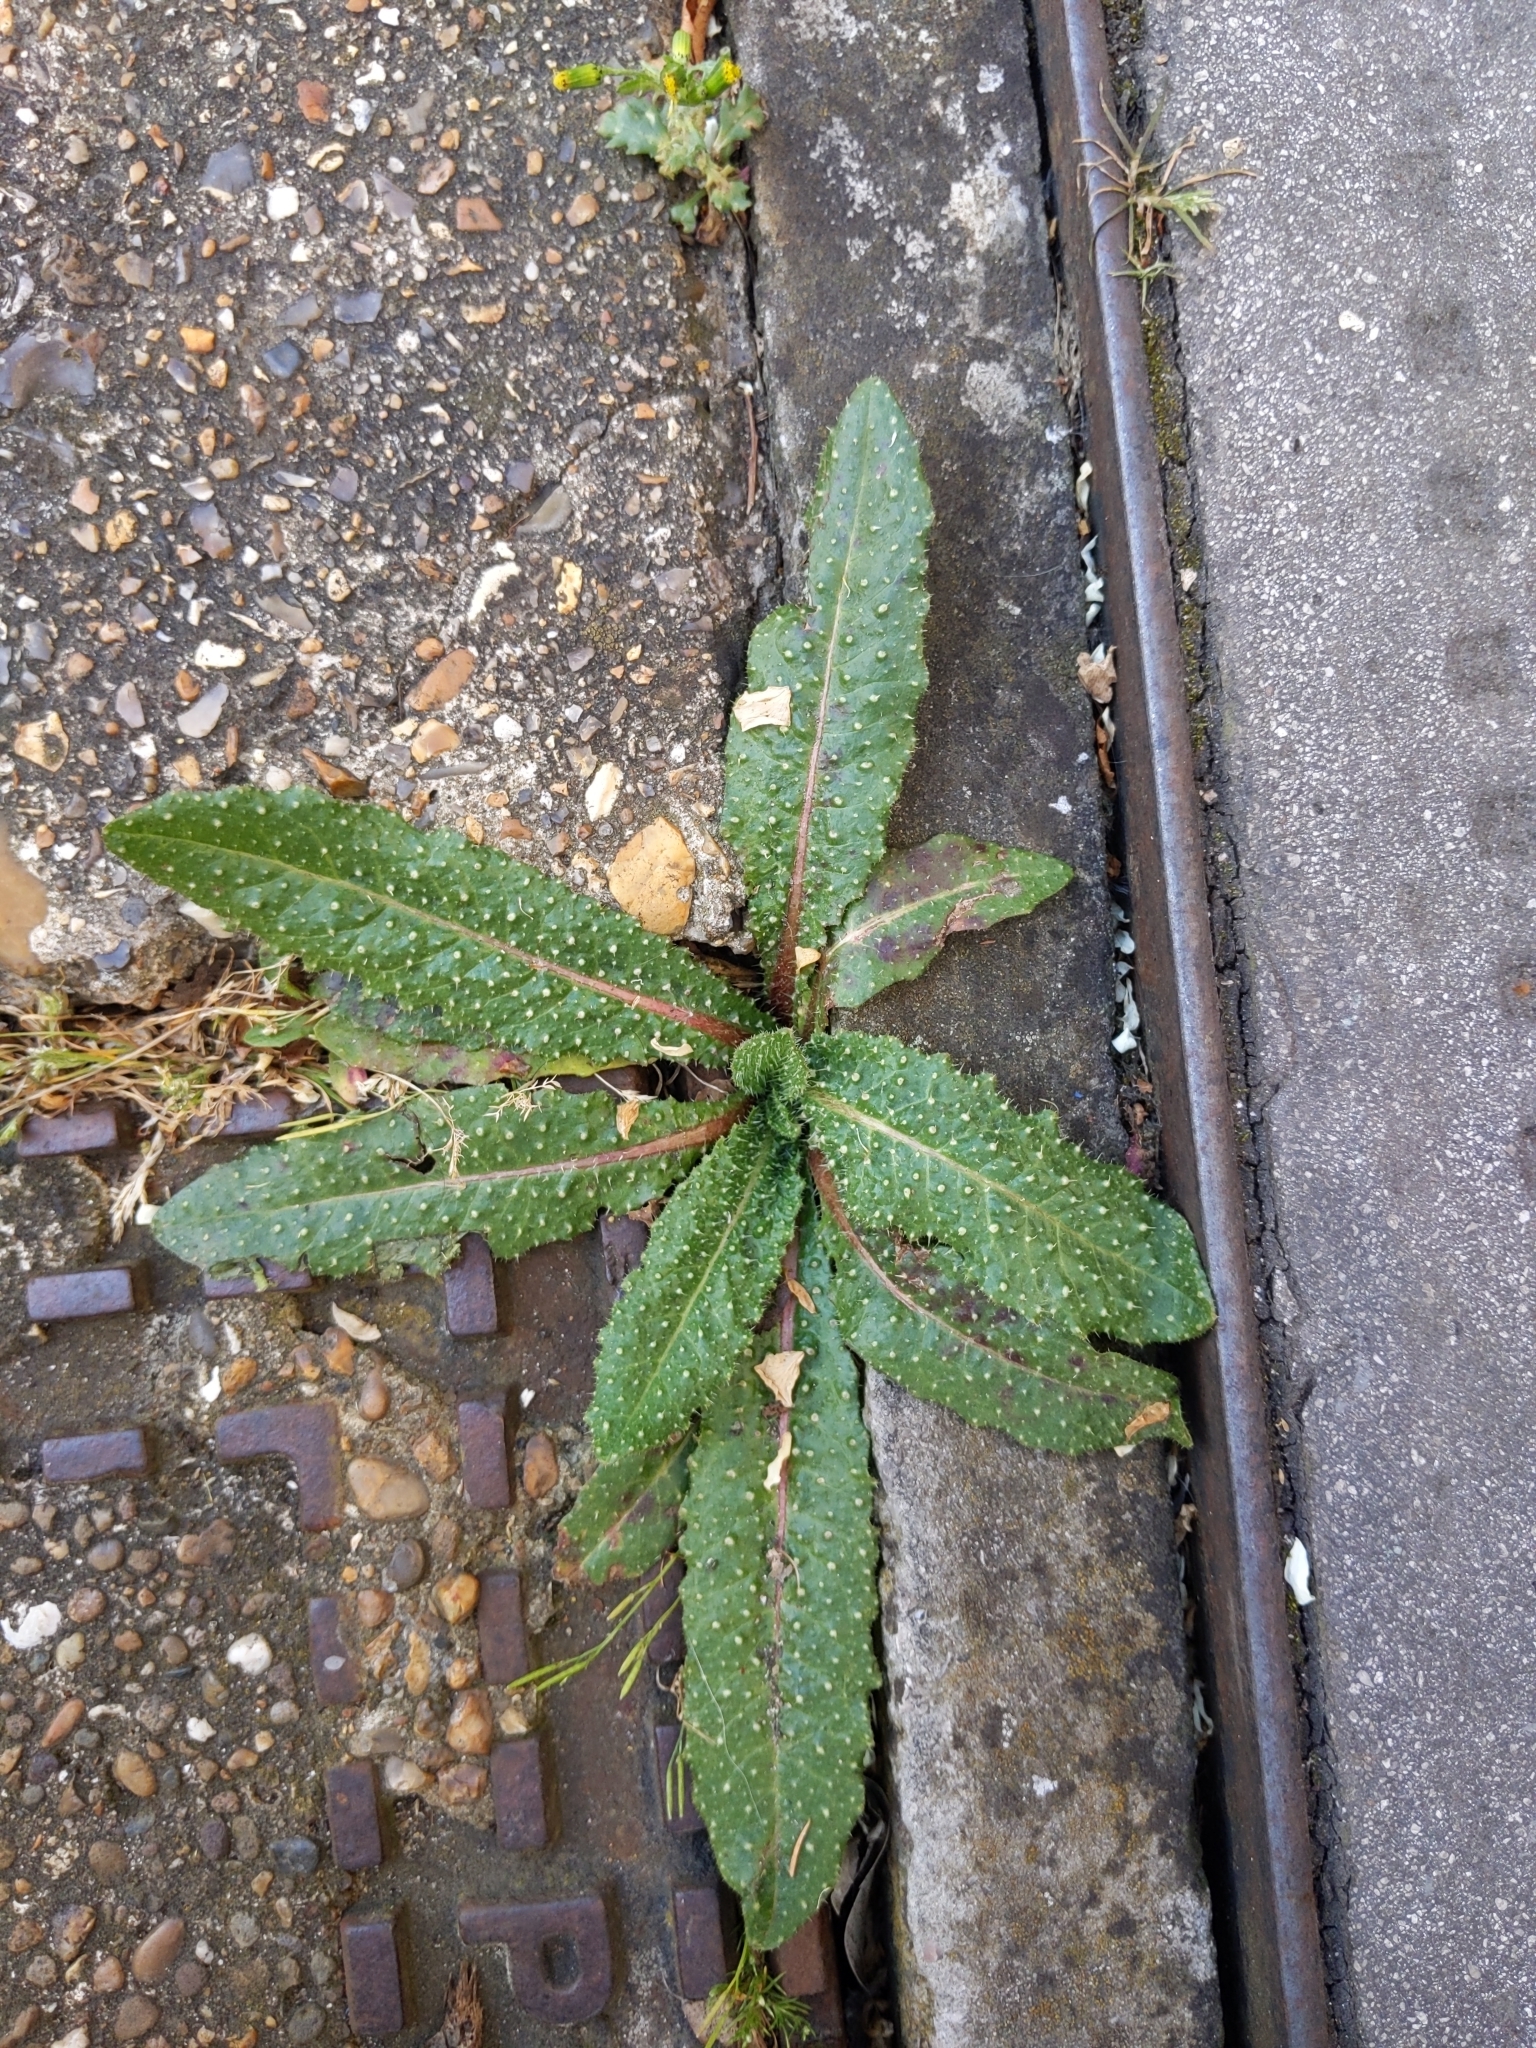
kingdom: Plantae
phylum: Tracheophyta
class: Magnoliopsida
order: Asterales
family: Asteraceae
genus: Helminthotheca
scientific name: Helminthotheca echioides
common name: Ox-tongue
